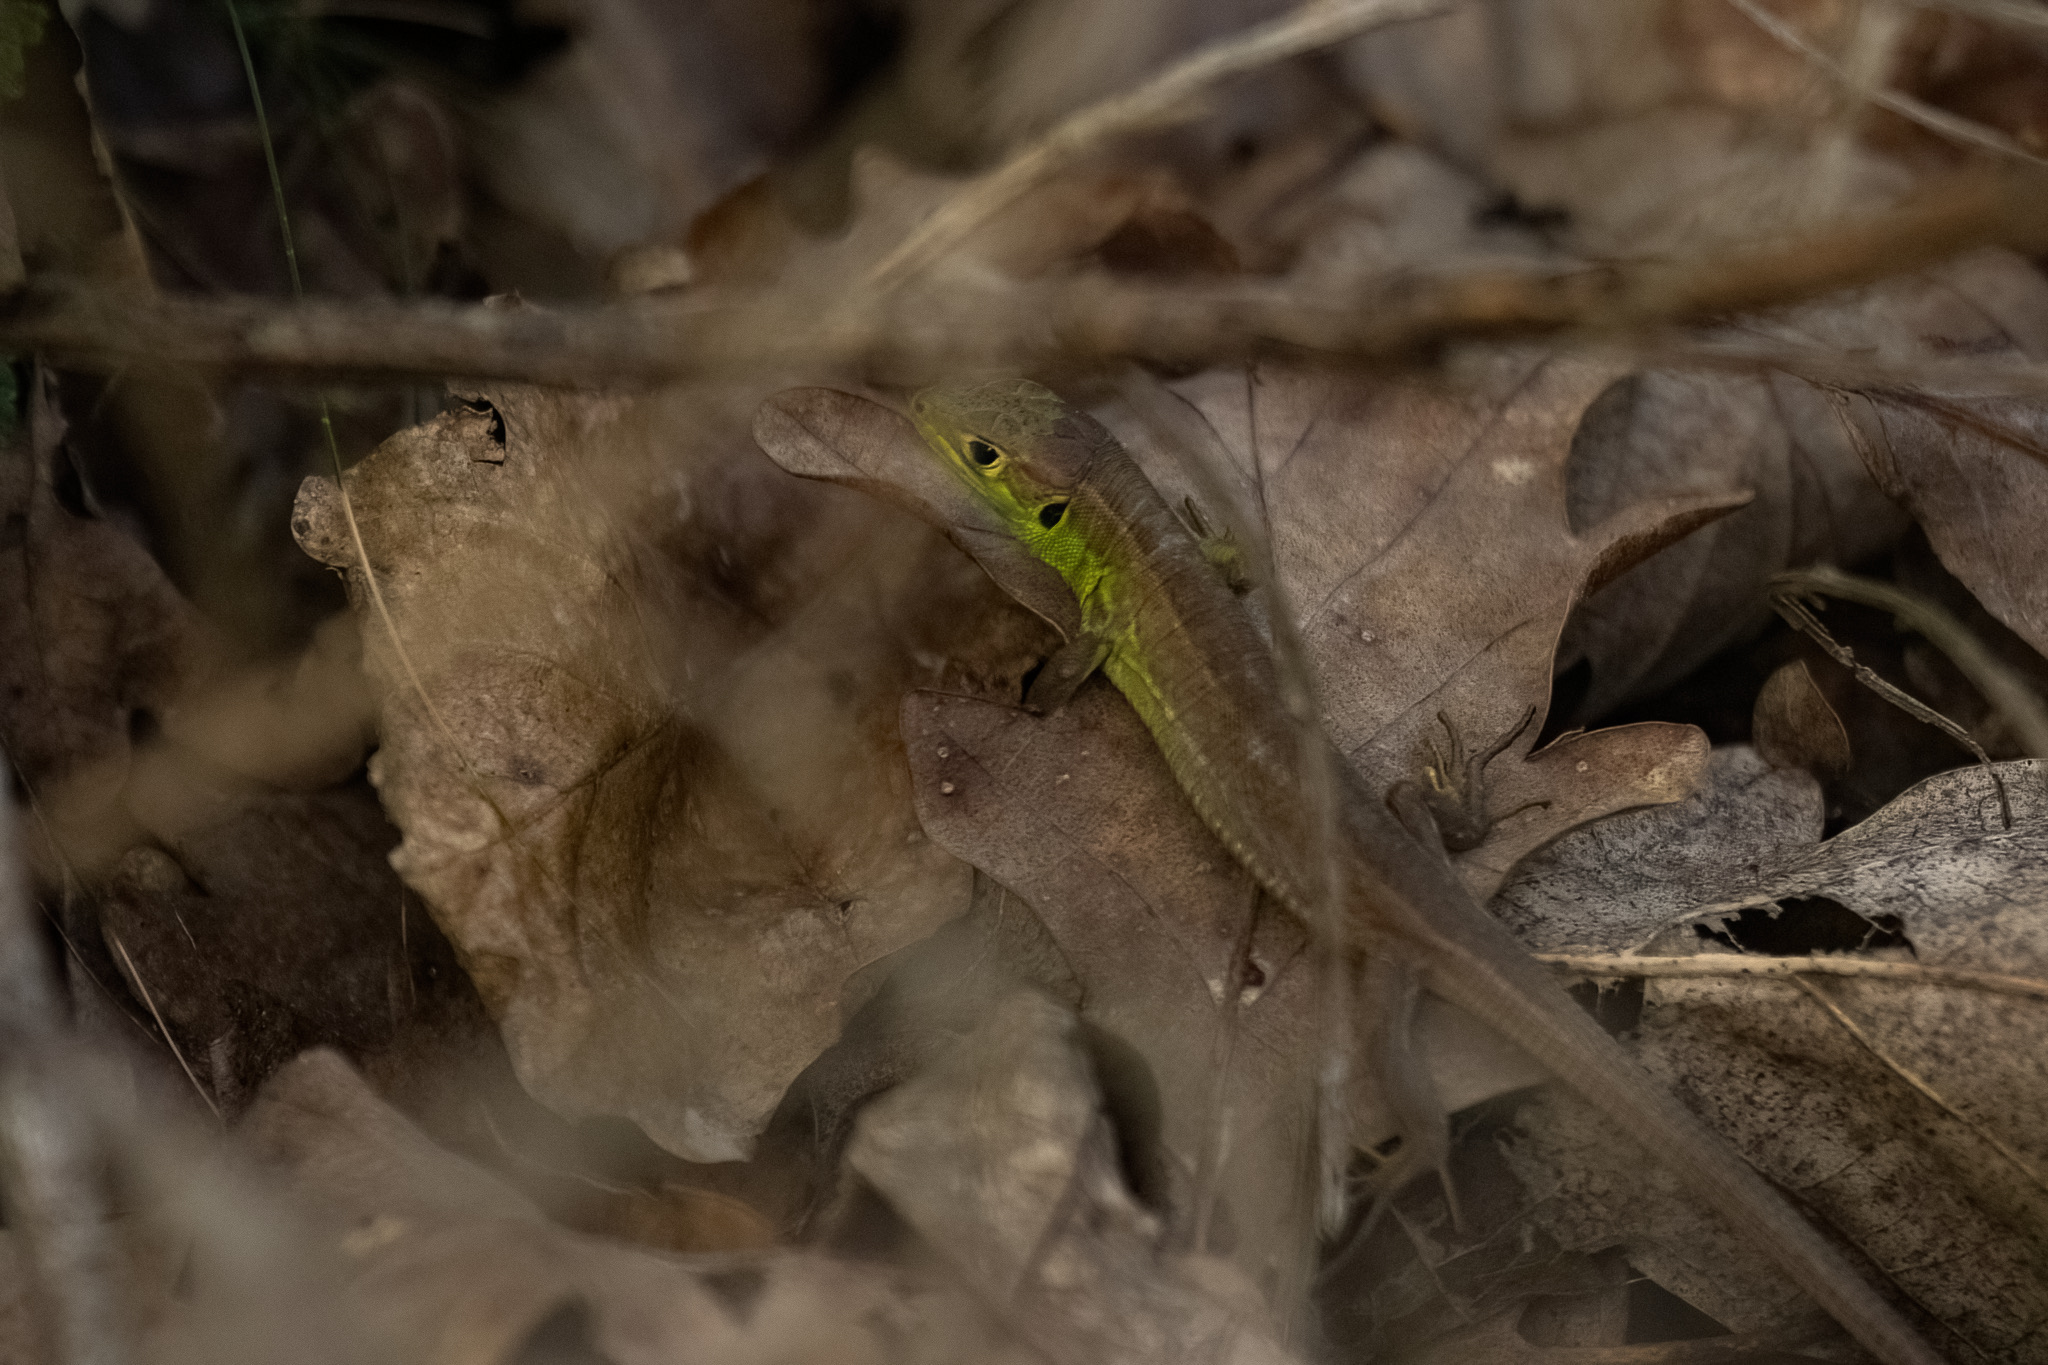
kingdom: Animalia
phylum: Chordata
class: Squamata
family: Lacertidae
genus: Lacerta
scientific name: Lacerta bilineata
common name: Western green lizard
